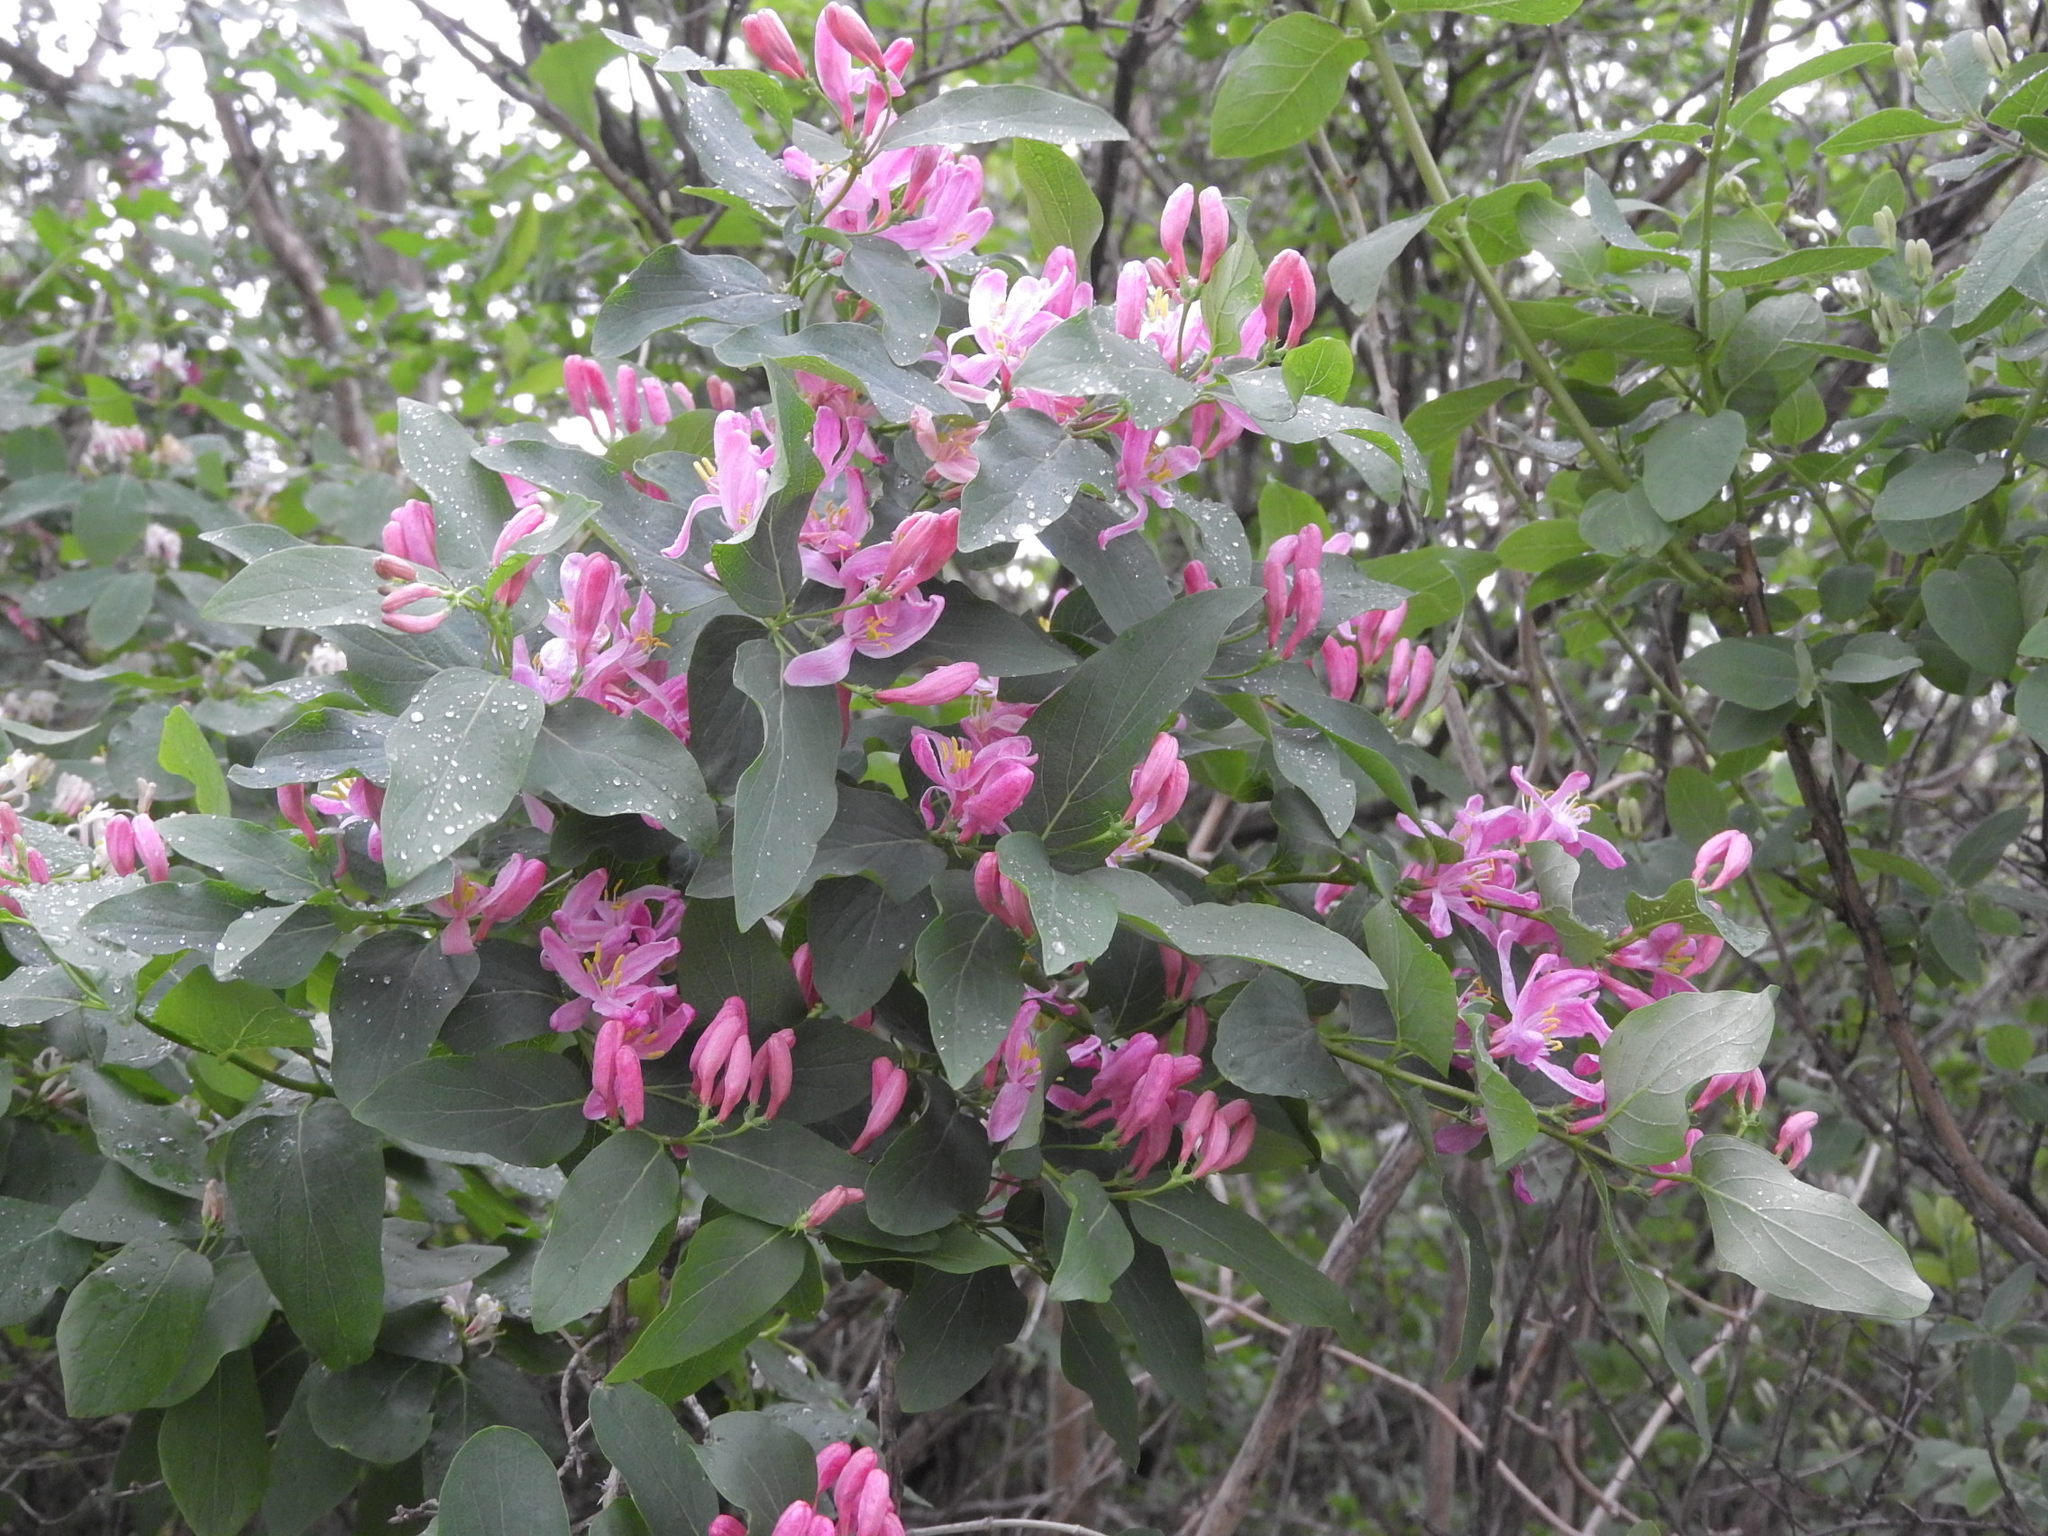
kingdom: Plantae
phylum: Tracheophyta
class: Magnoliopsida
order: Dipsacales
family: Caprifoliaceae
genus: Lonicera
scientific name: Lonicera tatarica
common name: Tatarian honeysuckle
